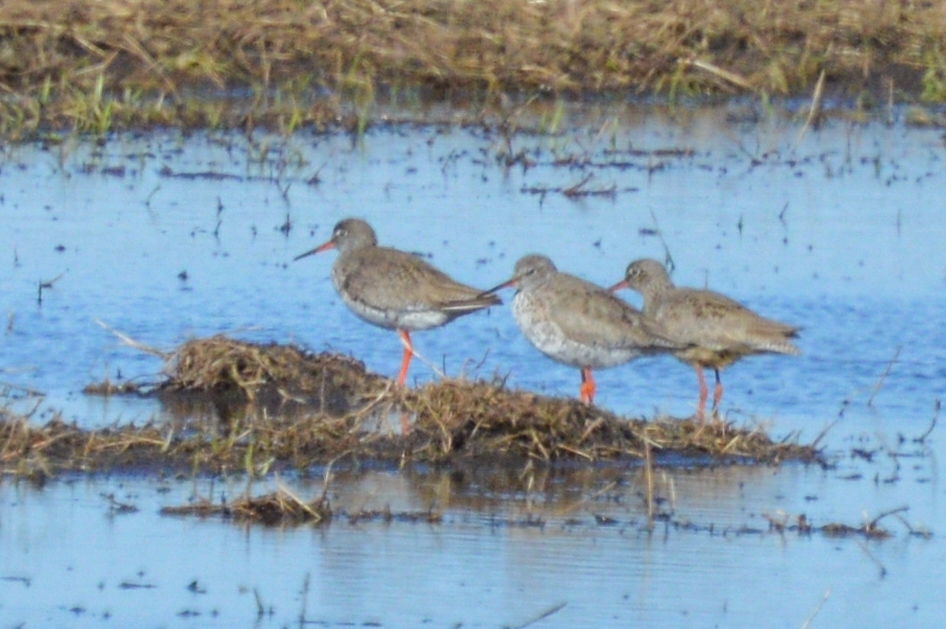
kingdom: Animalia
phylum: Chordata
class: Aves
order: Charadriiformes
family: Scolopacidae
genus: Tringa
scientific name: Tringa totanus
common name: Common redshank
